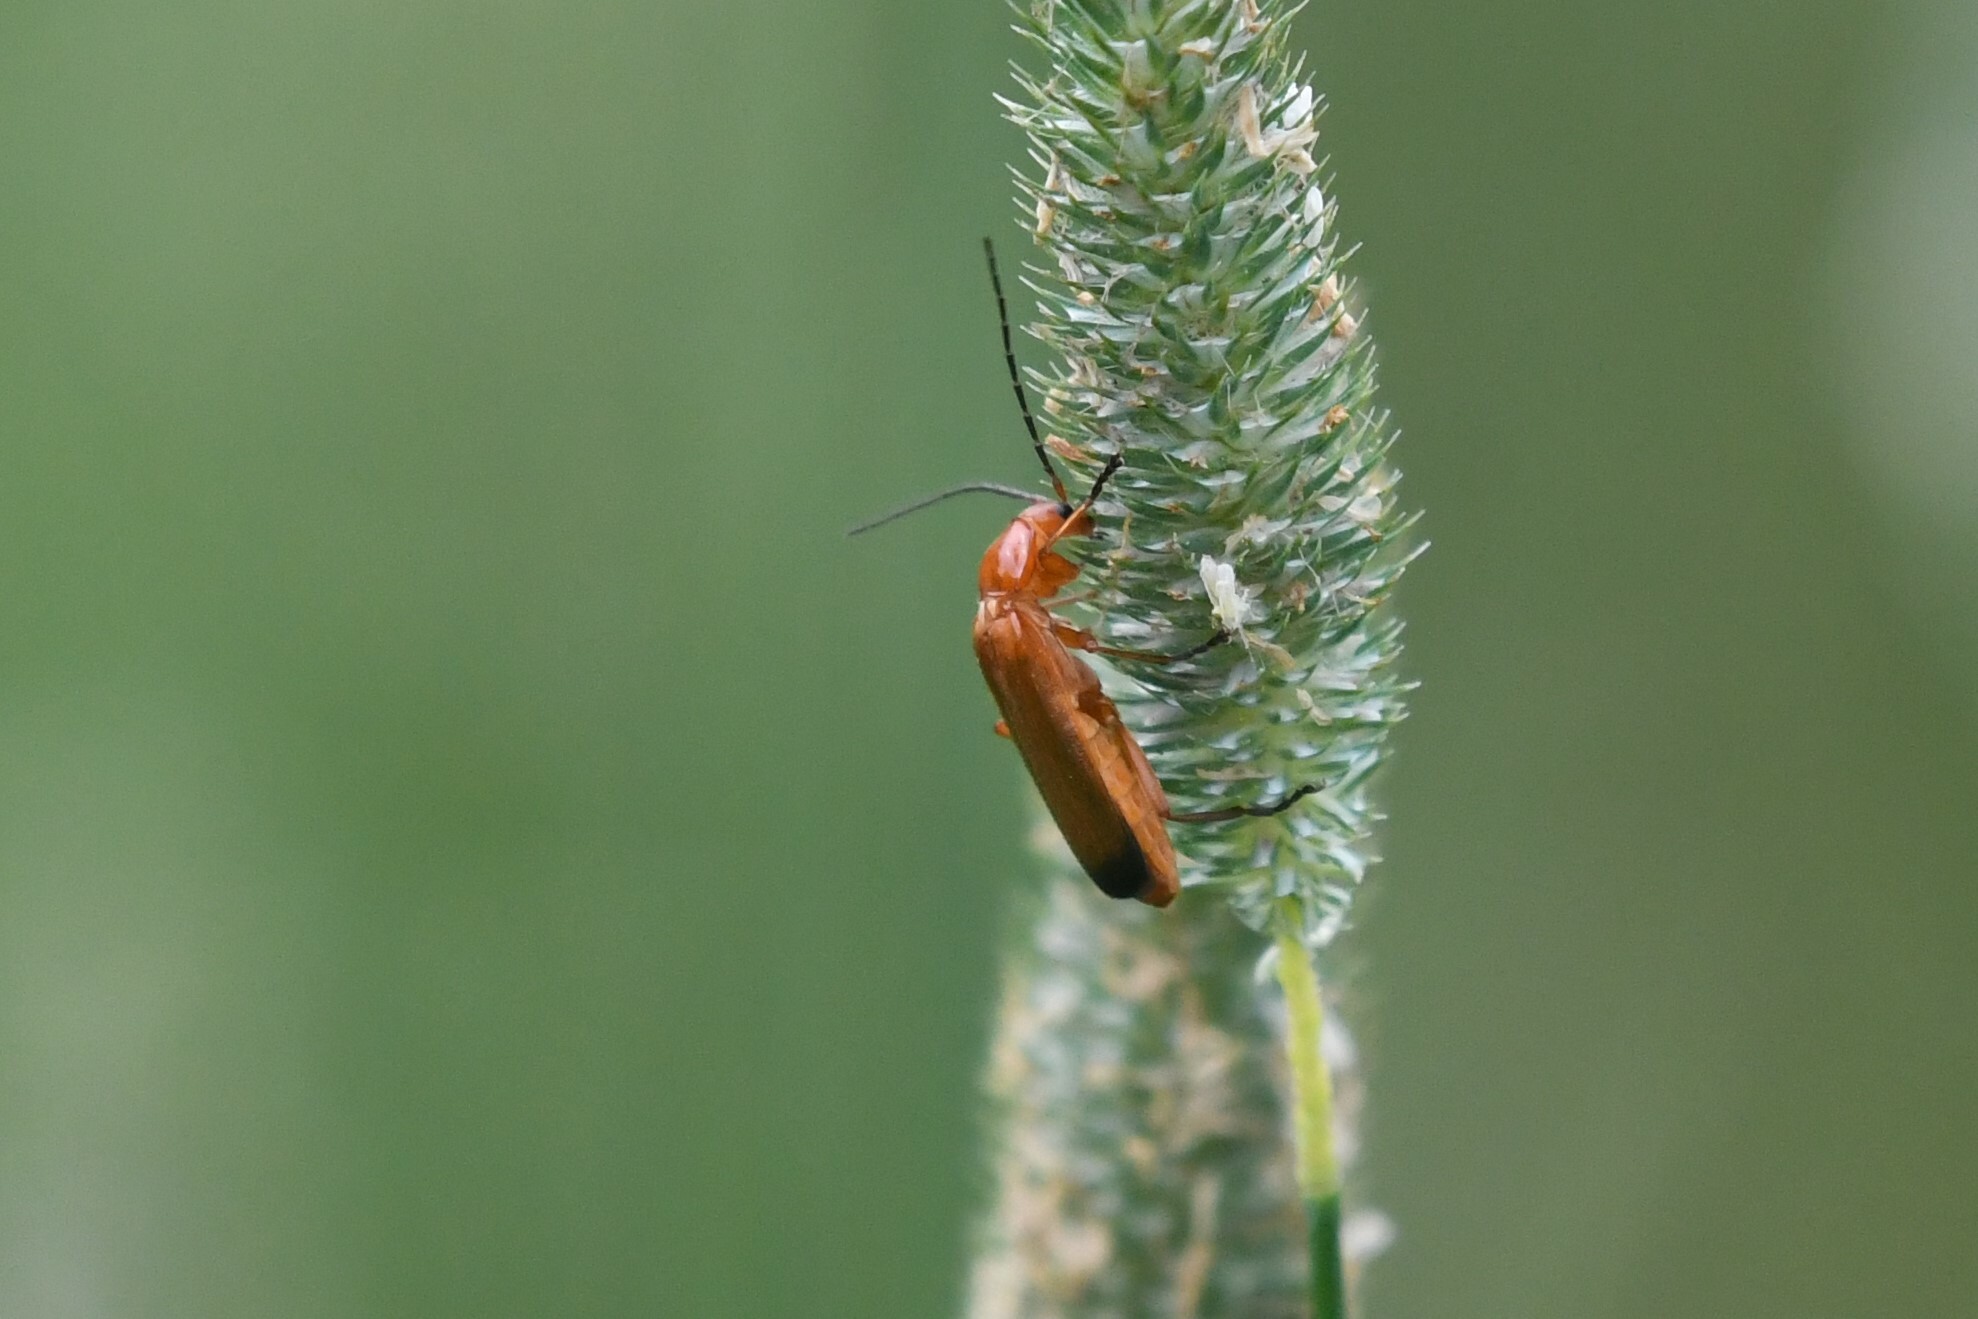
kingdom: Animalia
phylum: Arthropoda
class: Insecta
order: Coleoptera
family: Cantharidae
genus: Rhagonycha
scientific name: Rhagonycha fulva
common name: Common red soldier beetle
